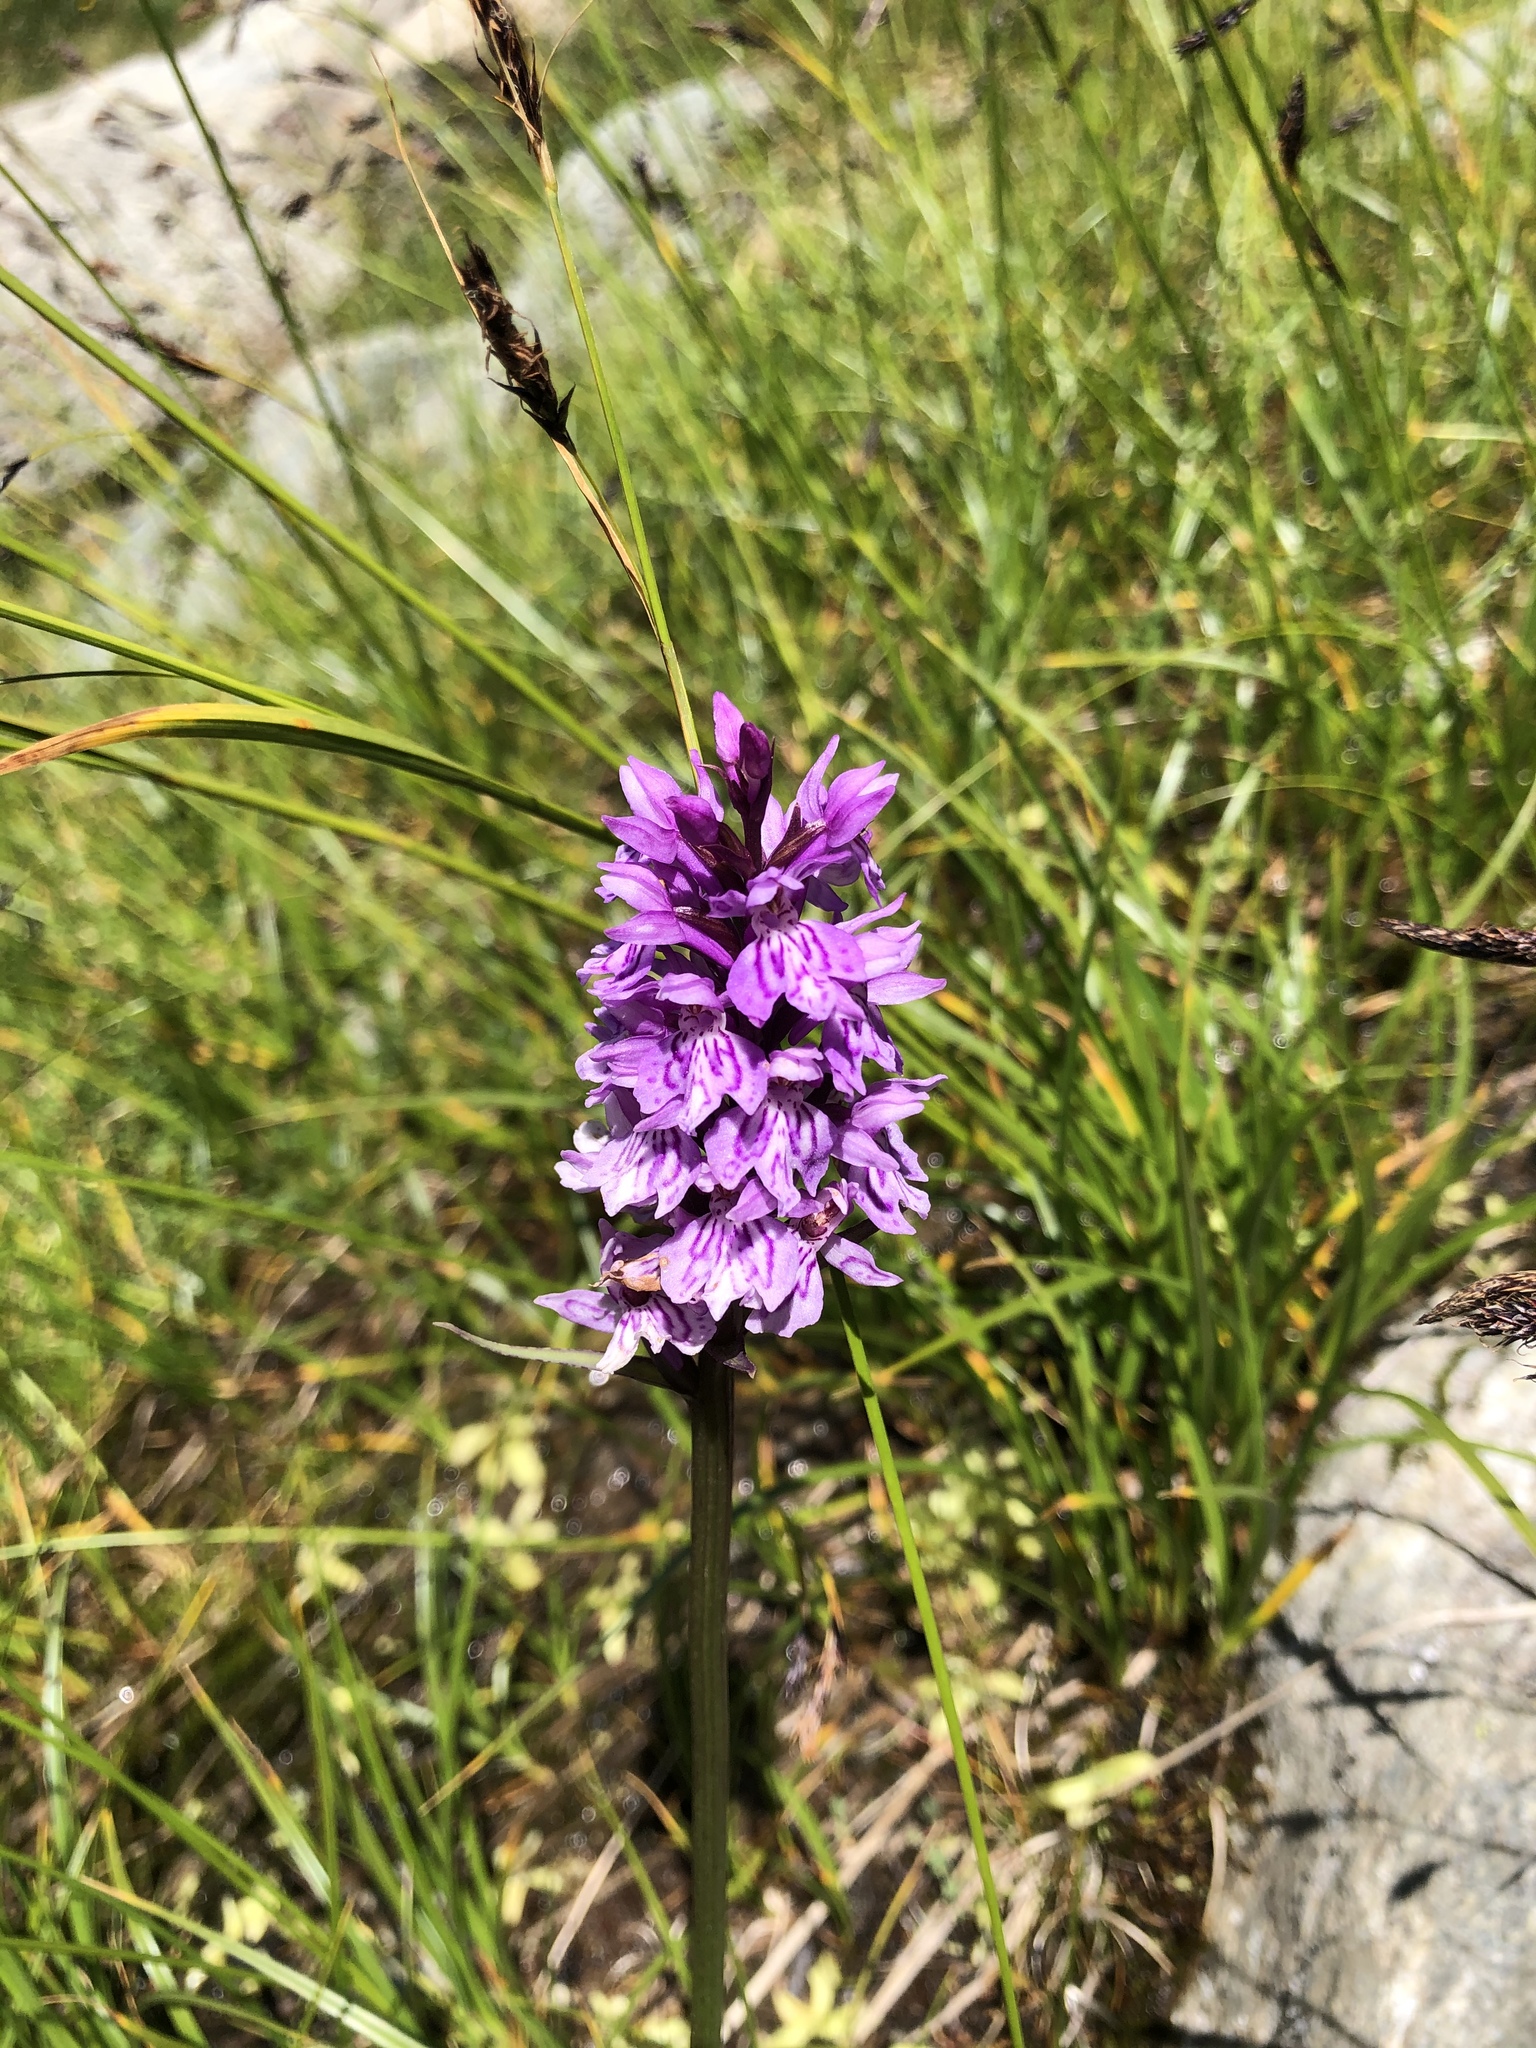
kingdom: Plantae
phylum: Tracheophyta
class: Liliopsida
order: Asparagales
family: Orchidaceae
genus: Dactylorhiza
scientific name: Dactylorhiza maculata
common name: Heath spotted-orchid
